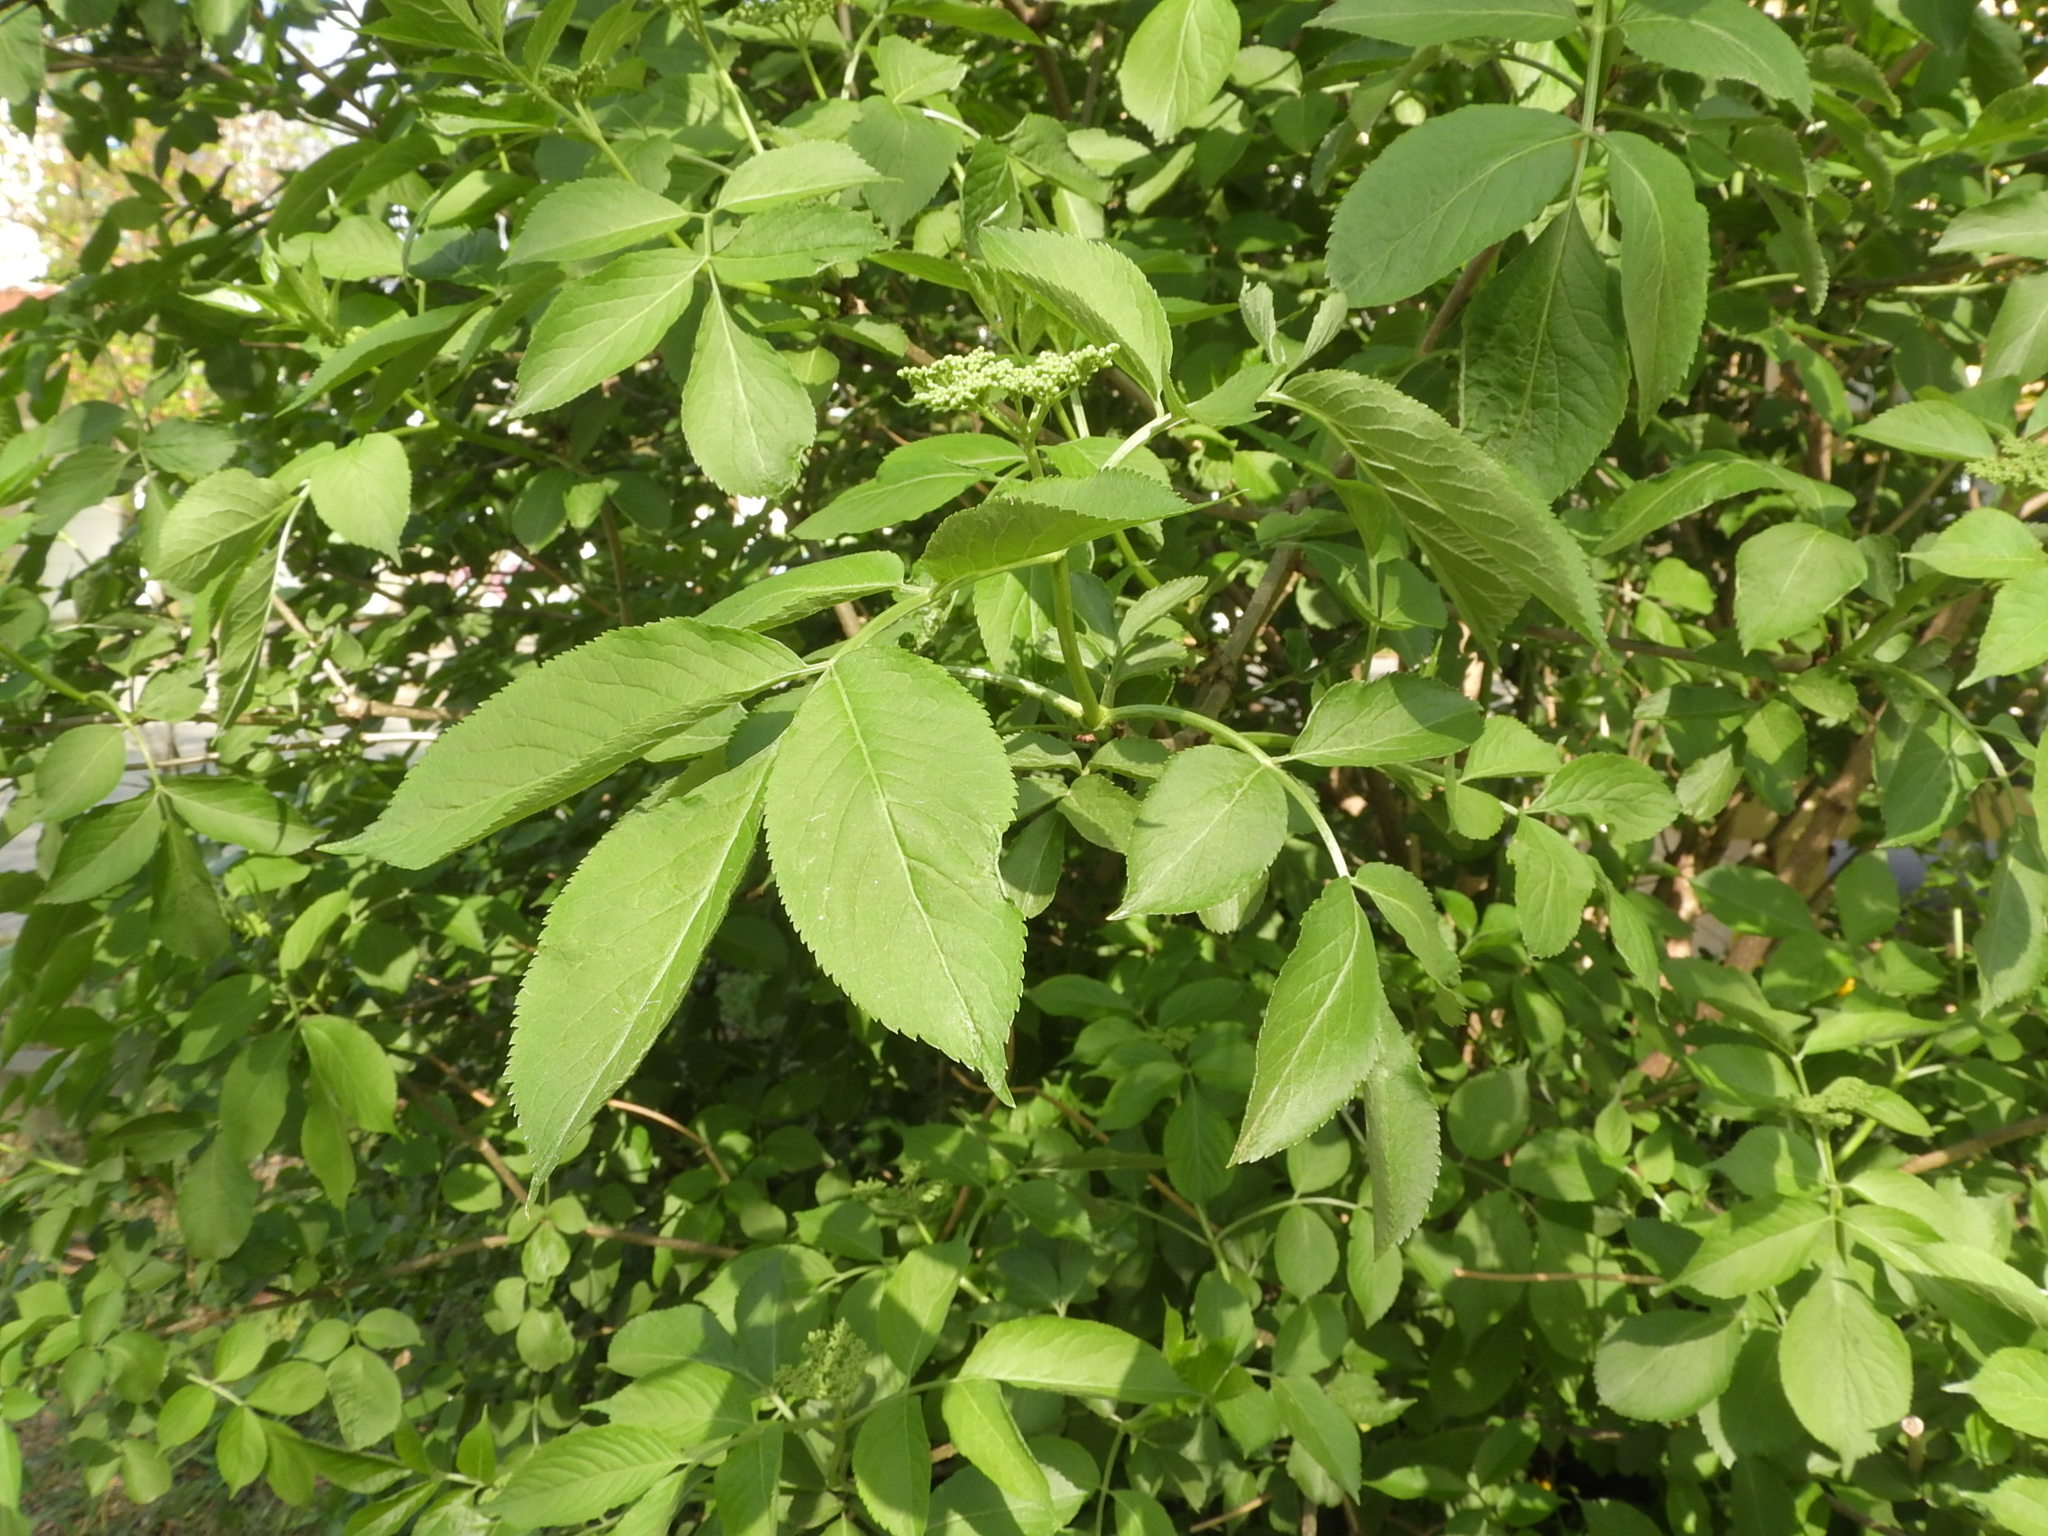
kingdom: Plantae
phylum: Tracheophyta
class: Magnoliopsida
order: Dipsacales
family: Viburnaceae
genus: Sambucus
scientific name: Sambucus nigra
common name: Elder
